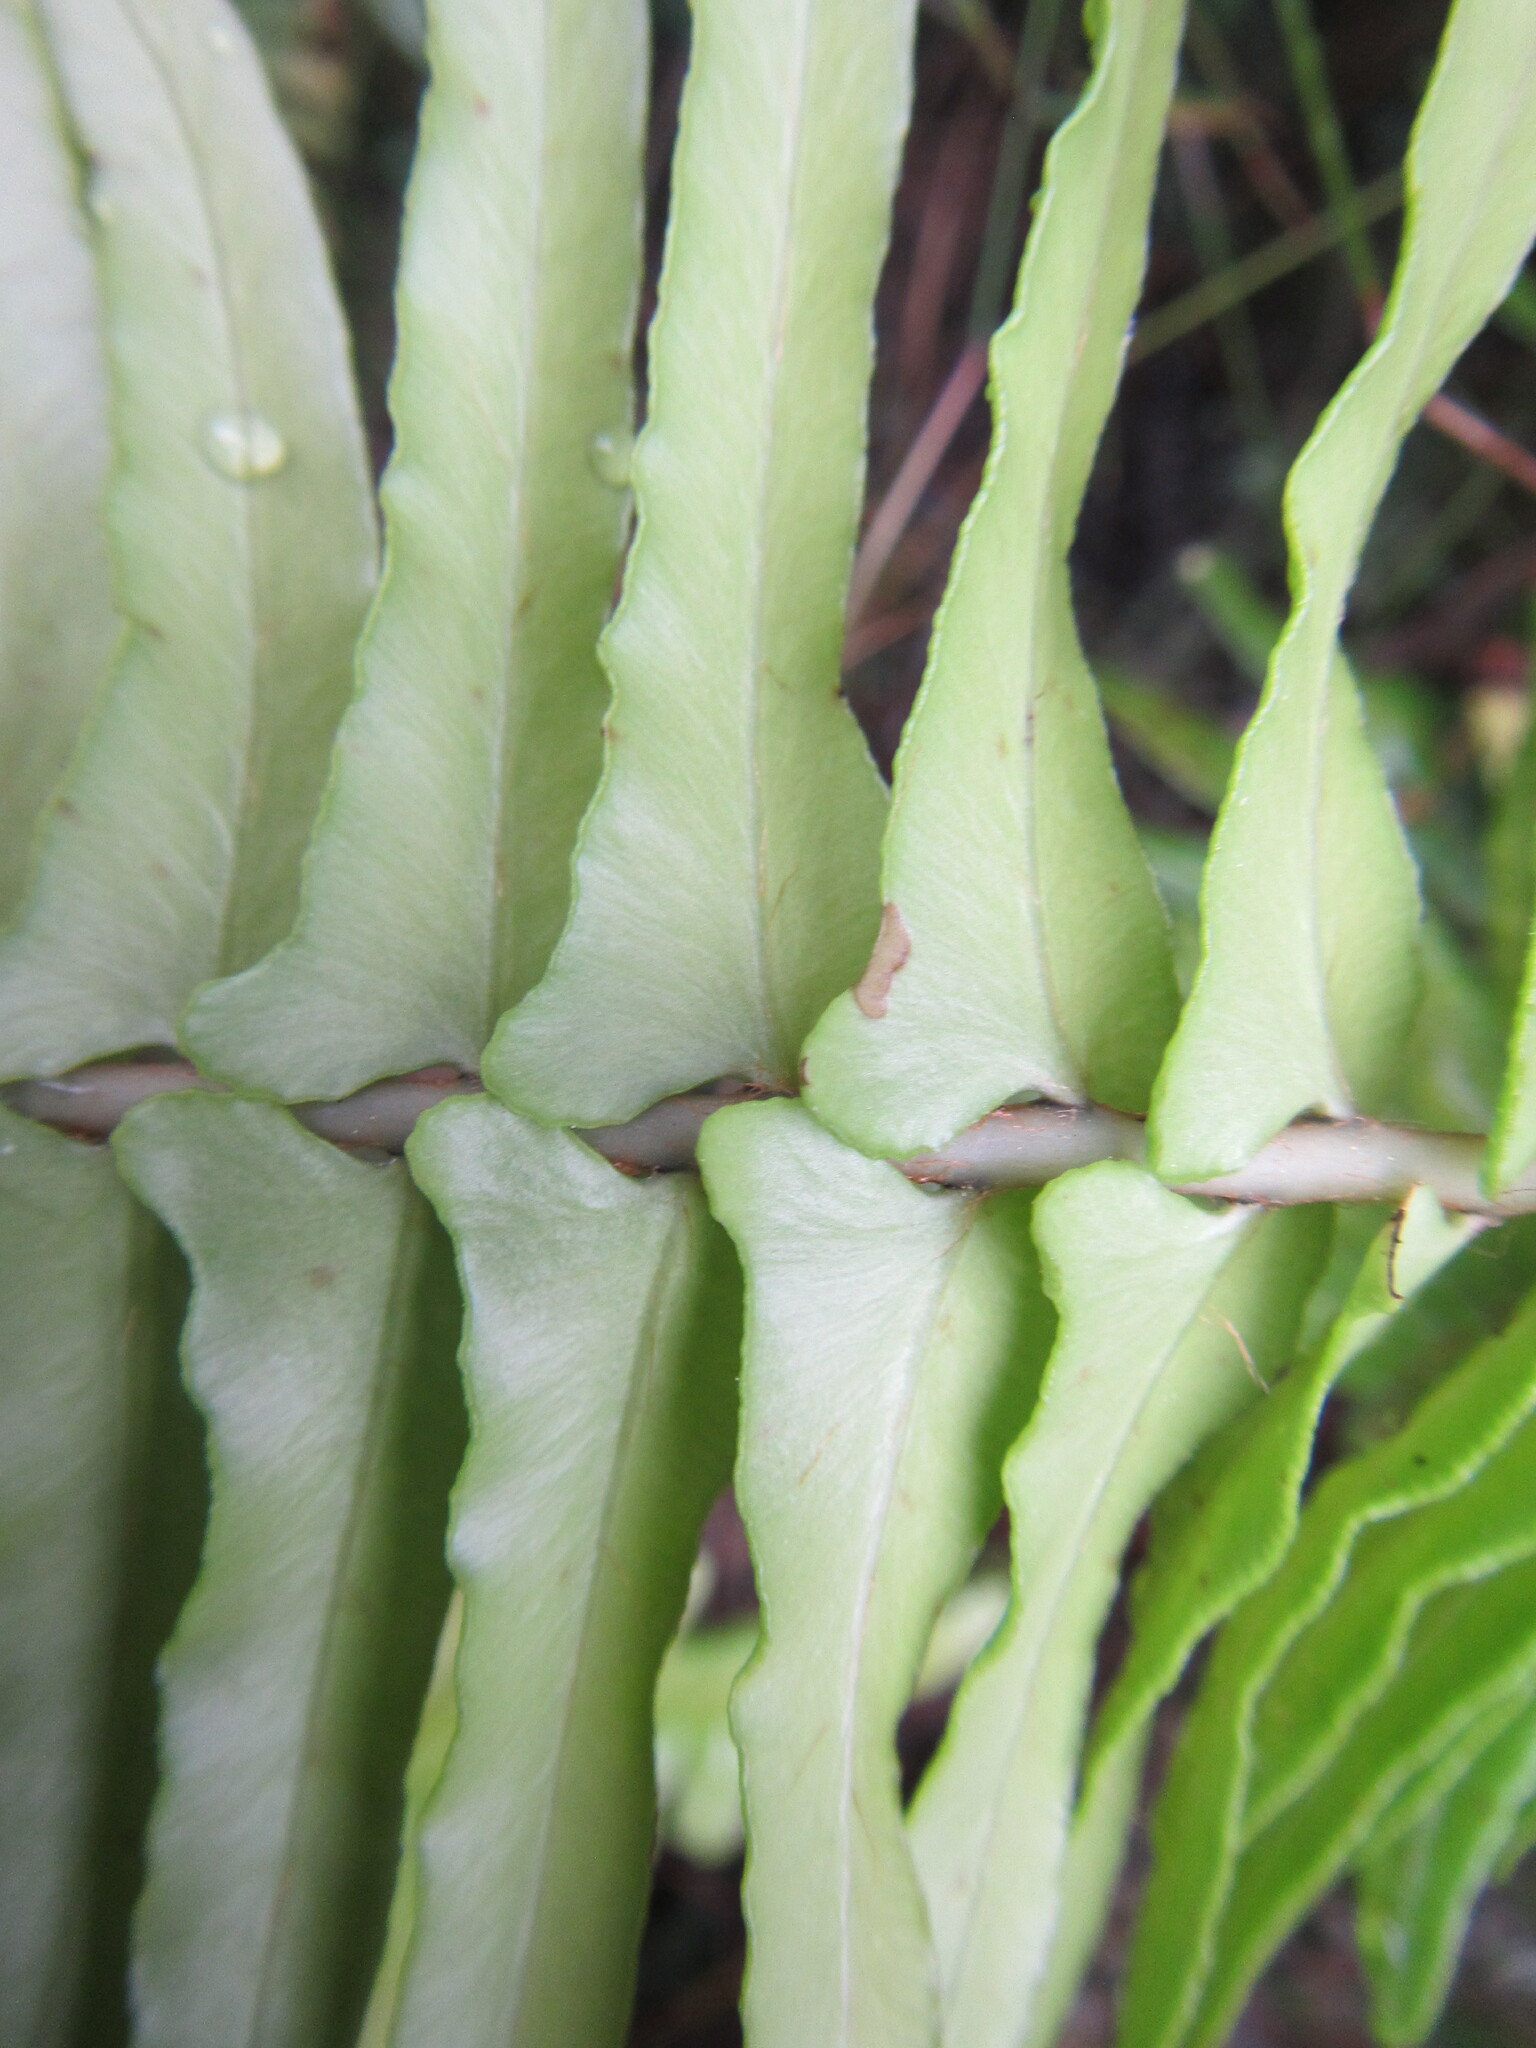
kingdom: Plantae
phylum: Tracheophyta
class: Polypodiopsida
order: Polypodiales
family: Blechnaceae
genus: Blechnum
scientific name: Blechnum punctulatum
